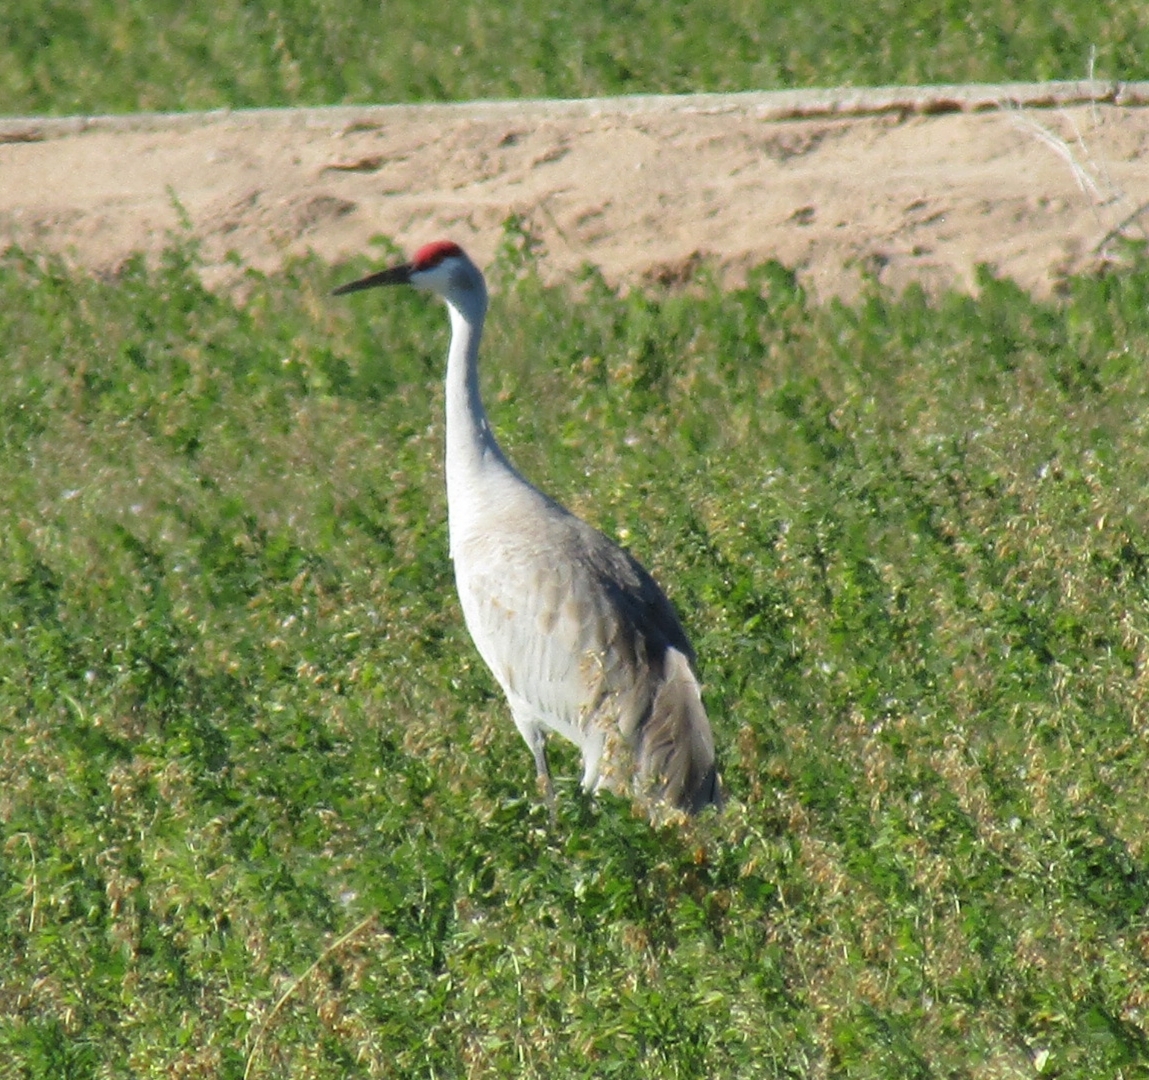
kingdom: Animalia
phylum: Chordata
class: Aves
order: Gruiformes
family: Gruidae
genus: Grus
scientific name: Grus canadensis
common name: Sandhill crane
